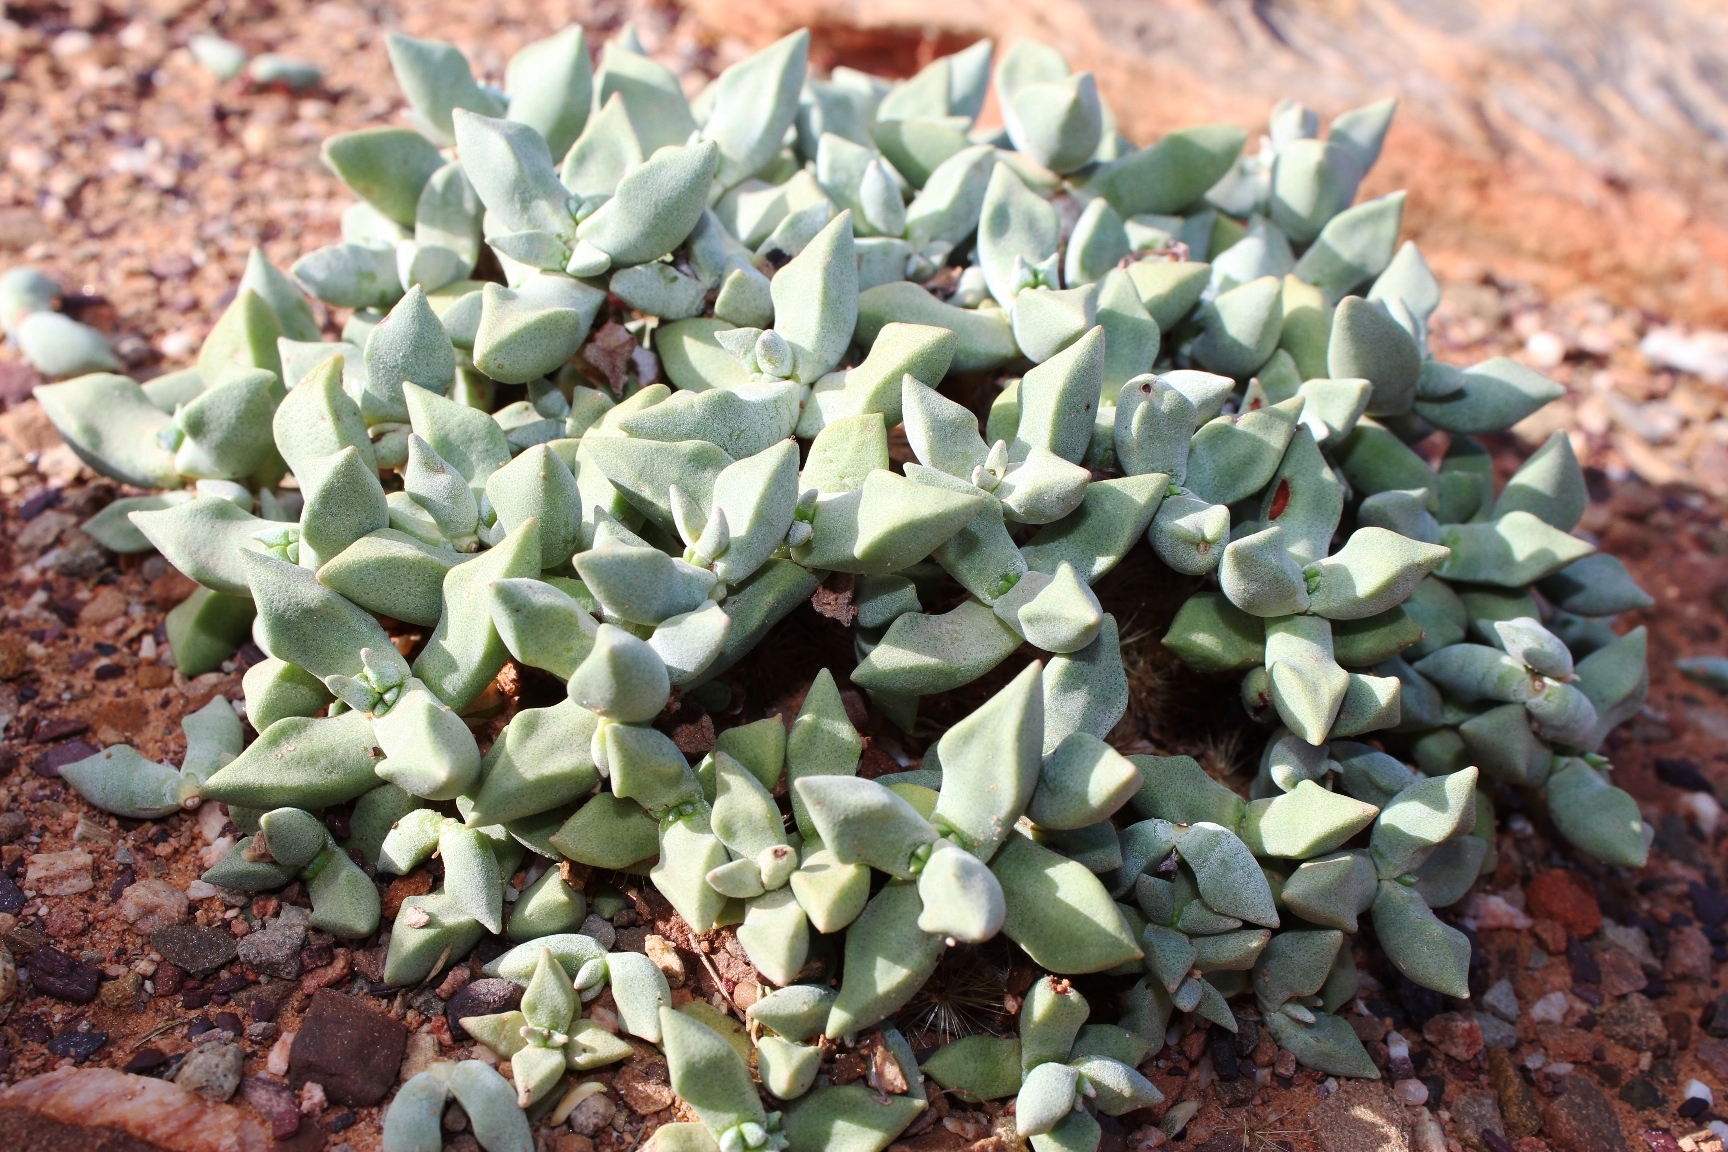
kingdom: Plantae
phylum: Tracheophyta
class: Magnoliopsida
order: Saxifragales
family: Crassulaceae
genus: Crassula
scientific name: Crassula deltoidea
